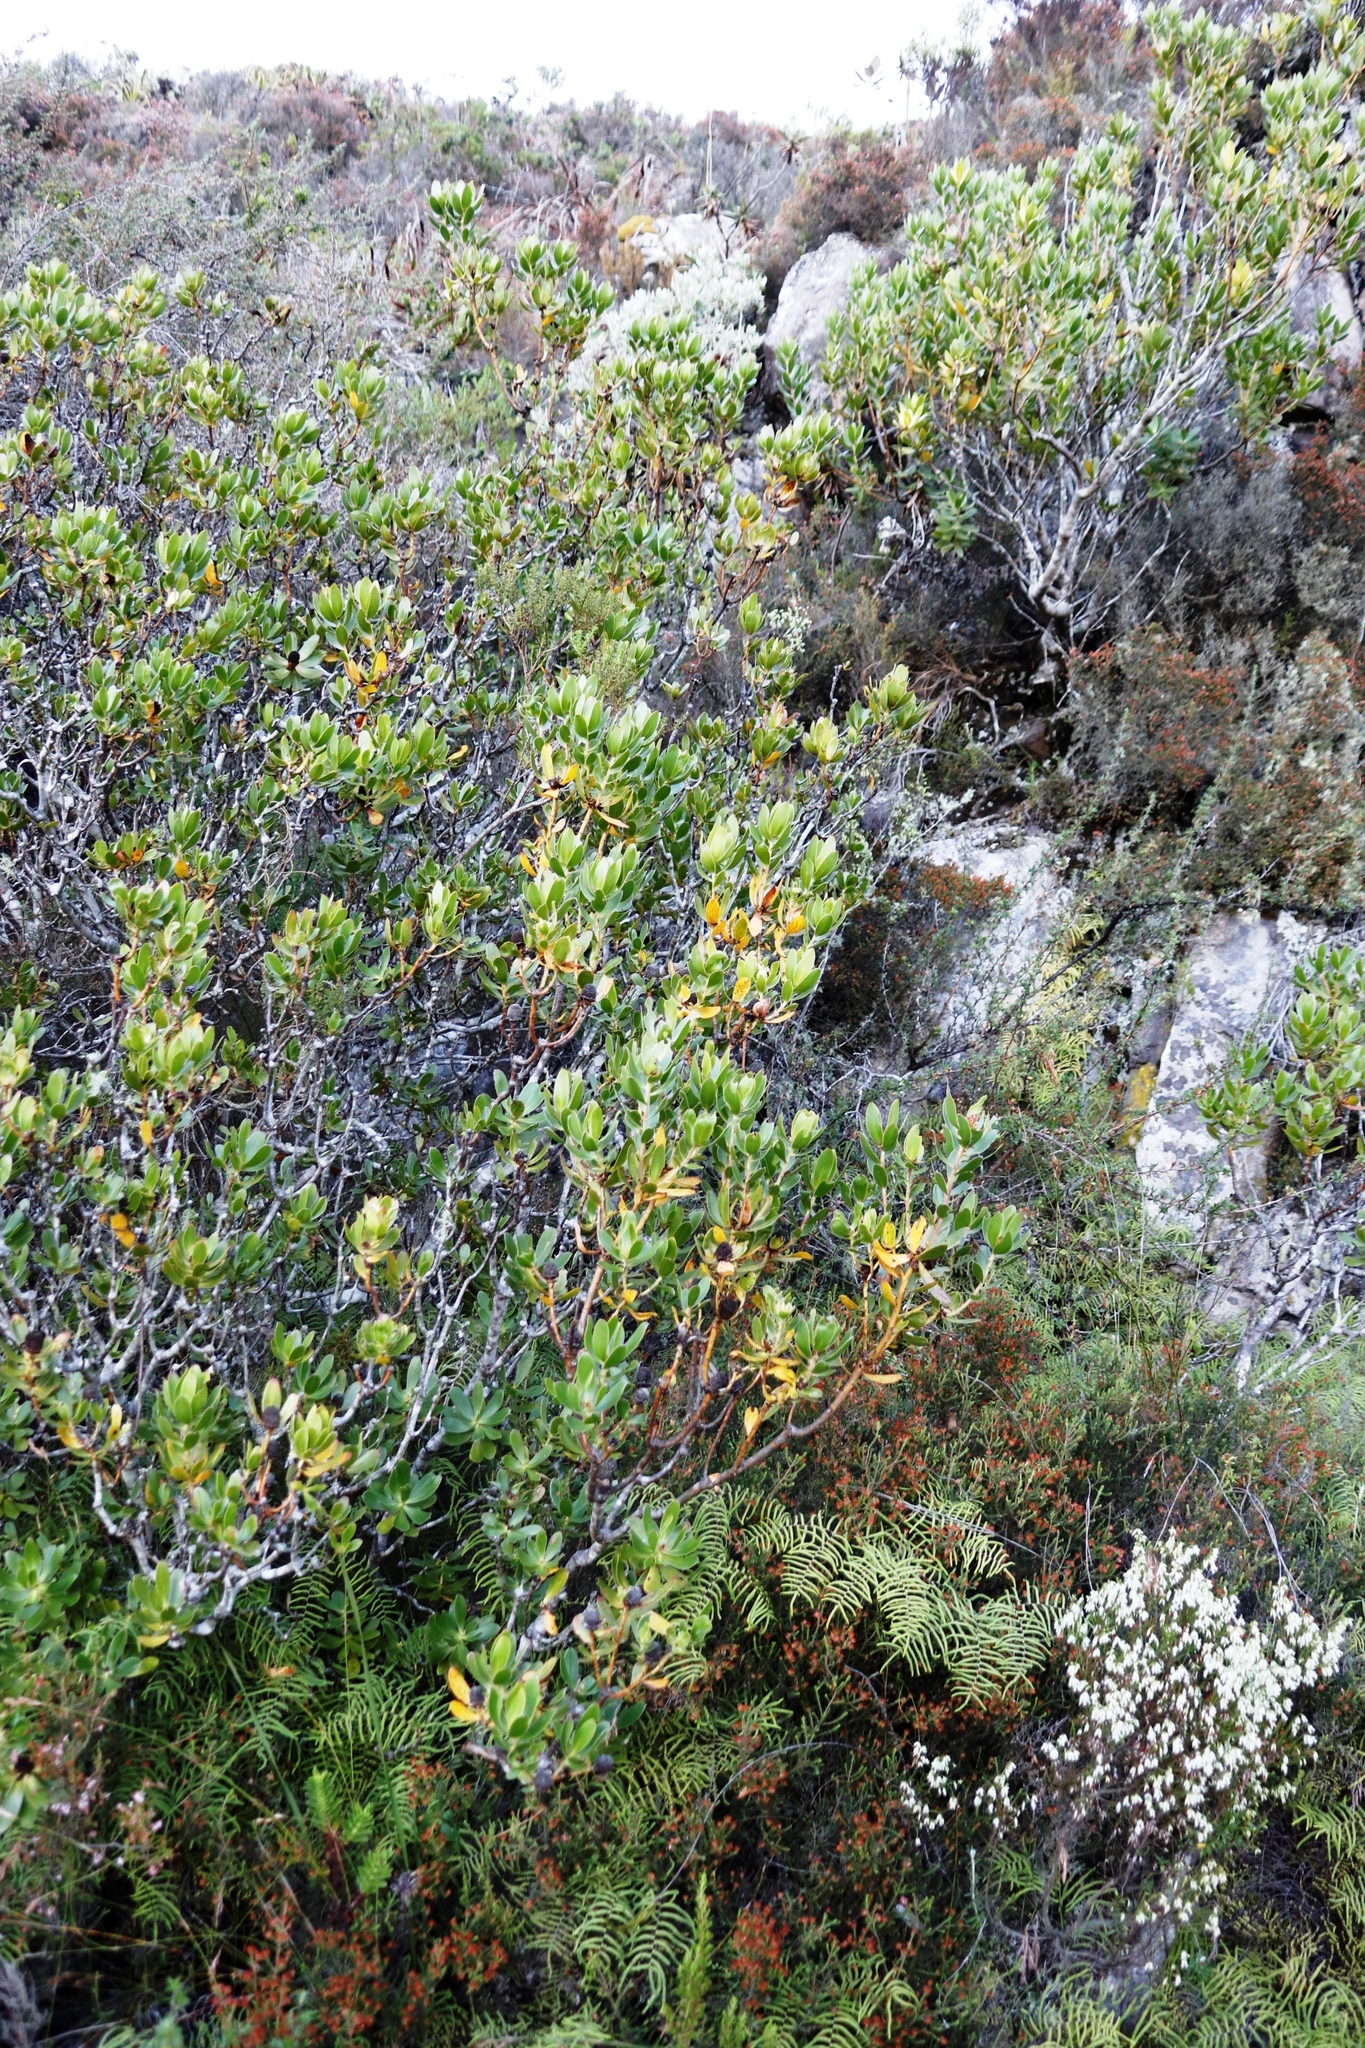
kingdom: Plantae
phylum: Tracheophyta
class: Magnoliopsida
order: Proteales
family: Proteaceae
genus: Leucadendron
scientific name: Leucadendron strobilinum
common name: Mountain rose
